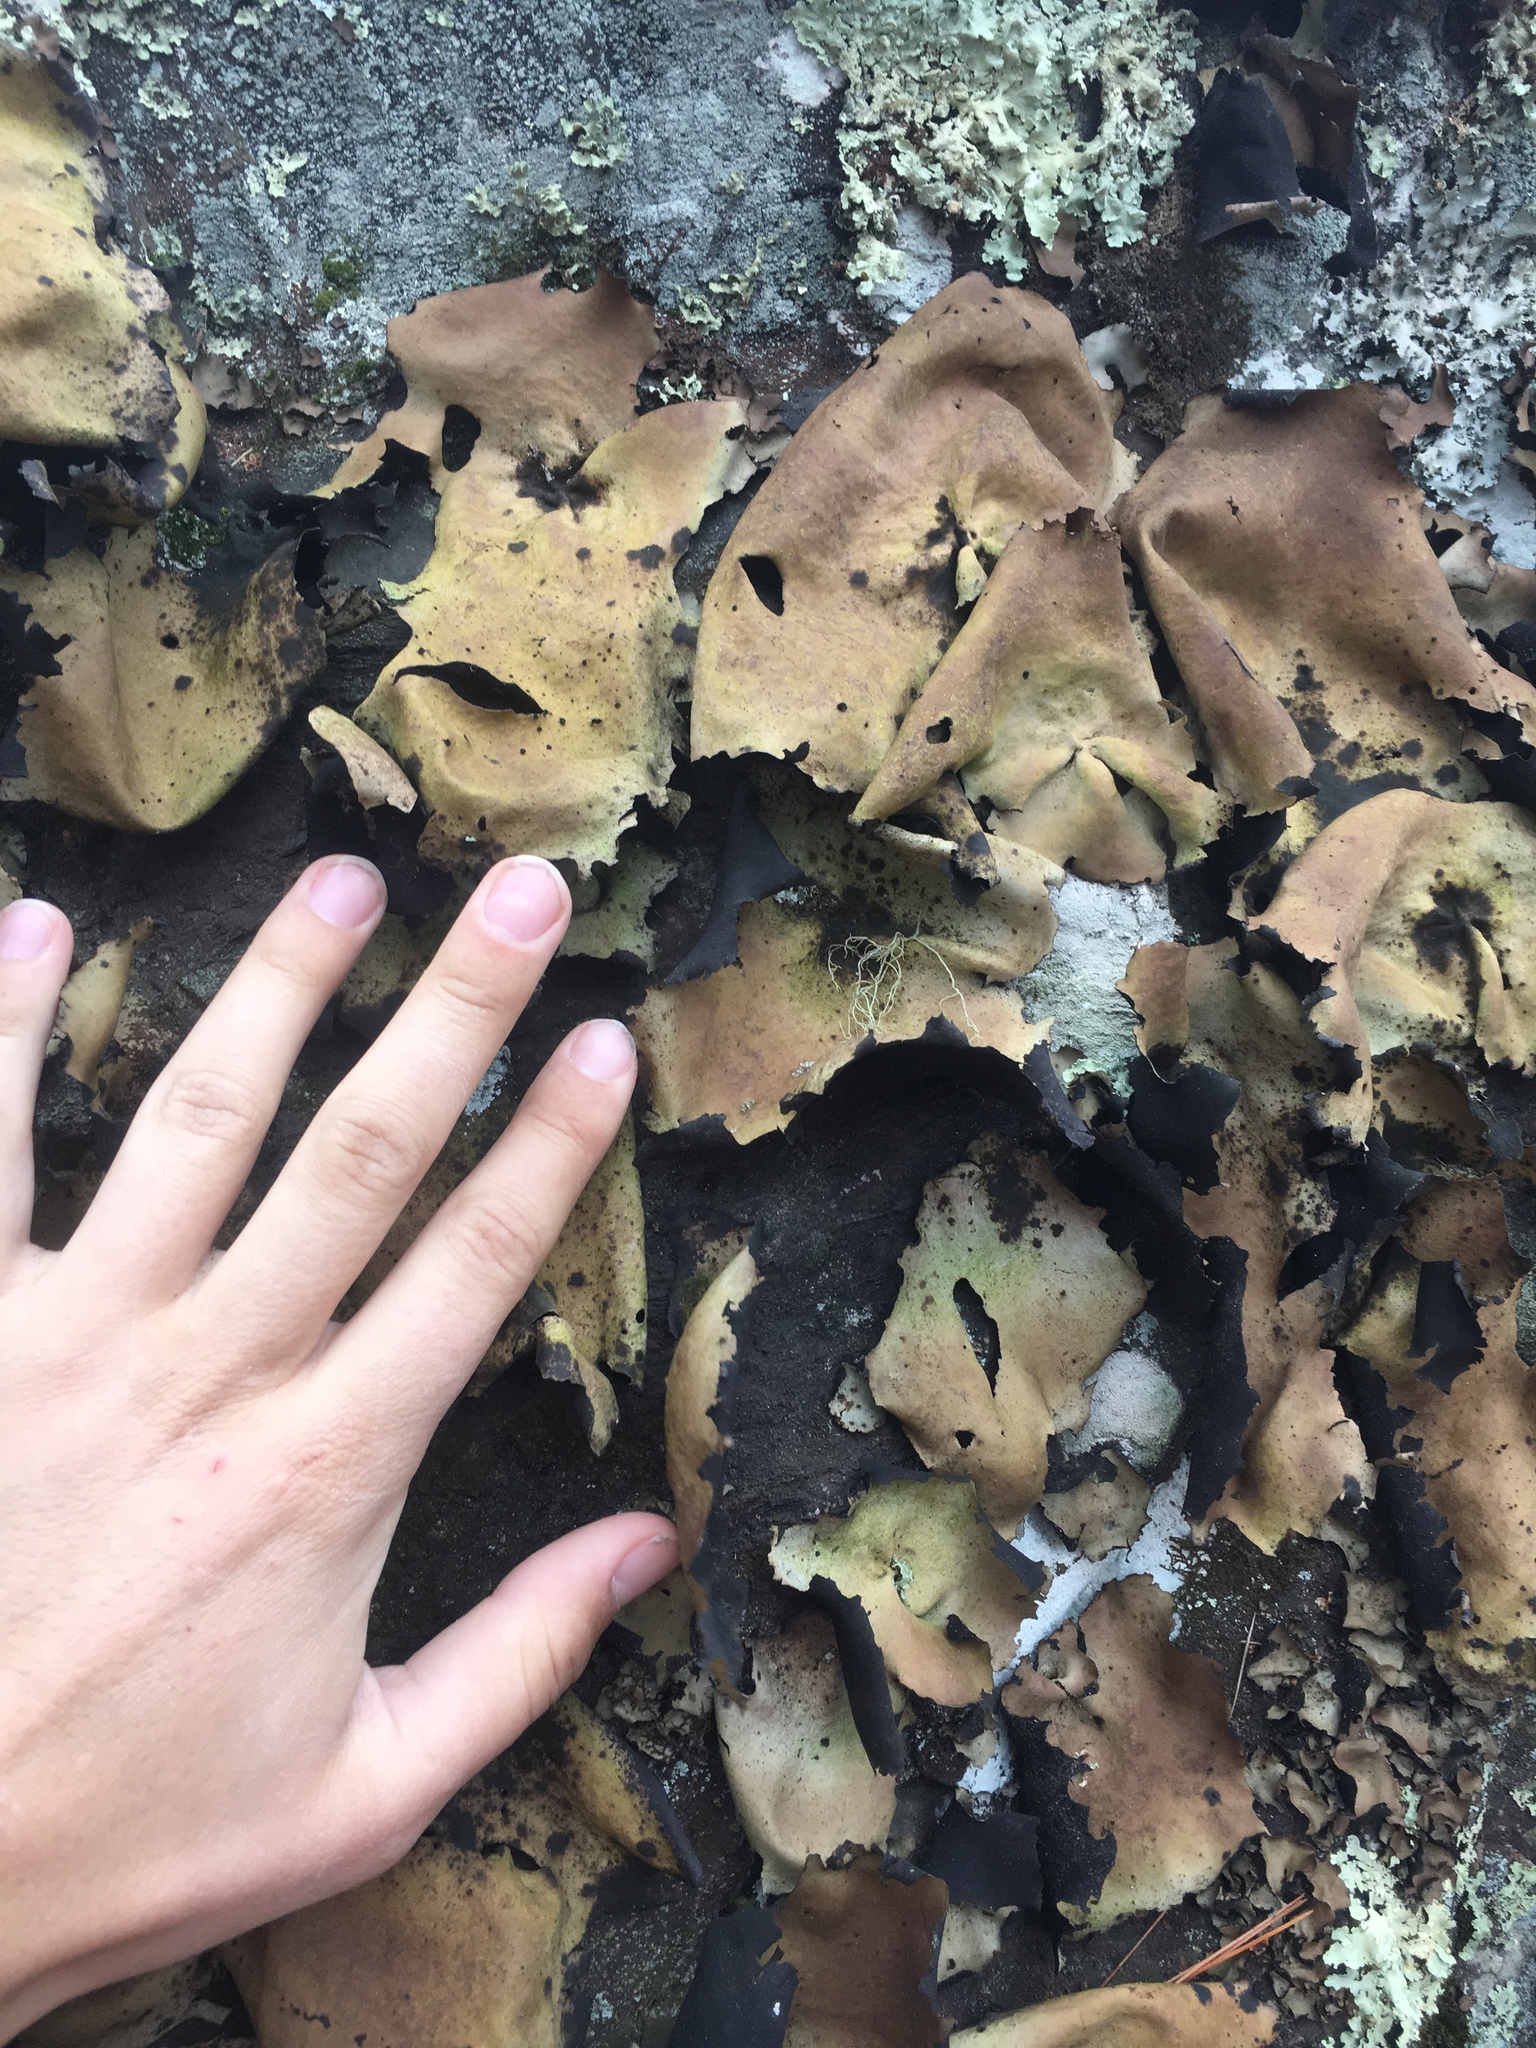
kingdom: Fungi
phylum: Ascomycota
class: Lecanoromycetes
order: Umbilicariales
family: Umbilicariaceae
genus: Umbilicaria
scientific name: Umbilicaria mammulata
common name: Smooth rock tripe
